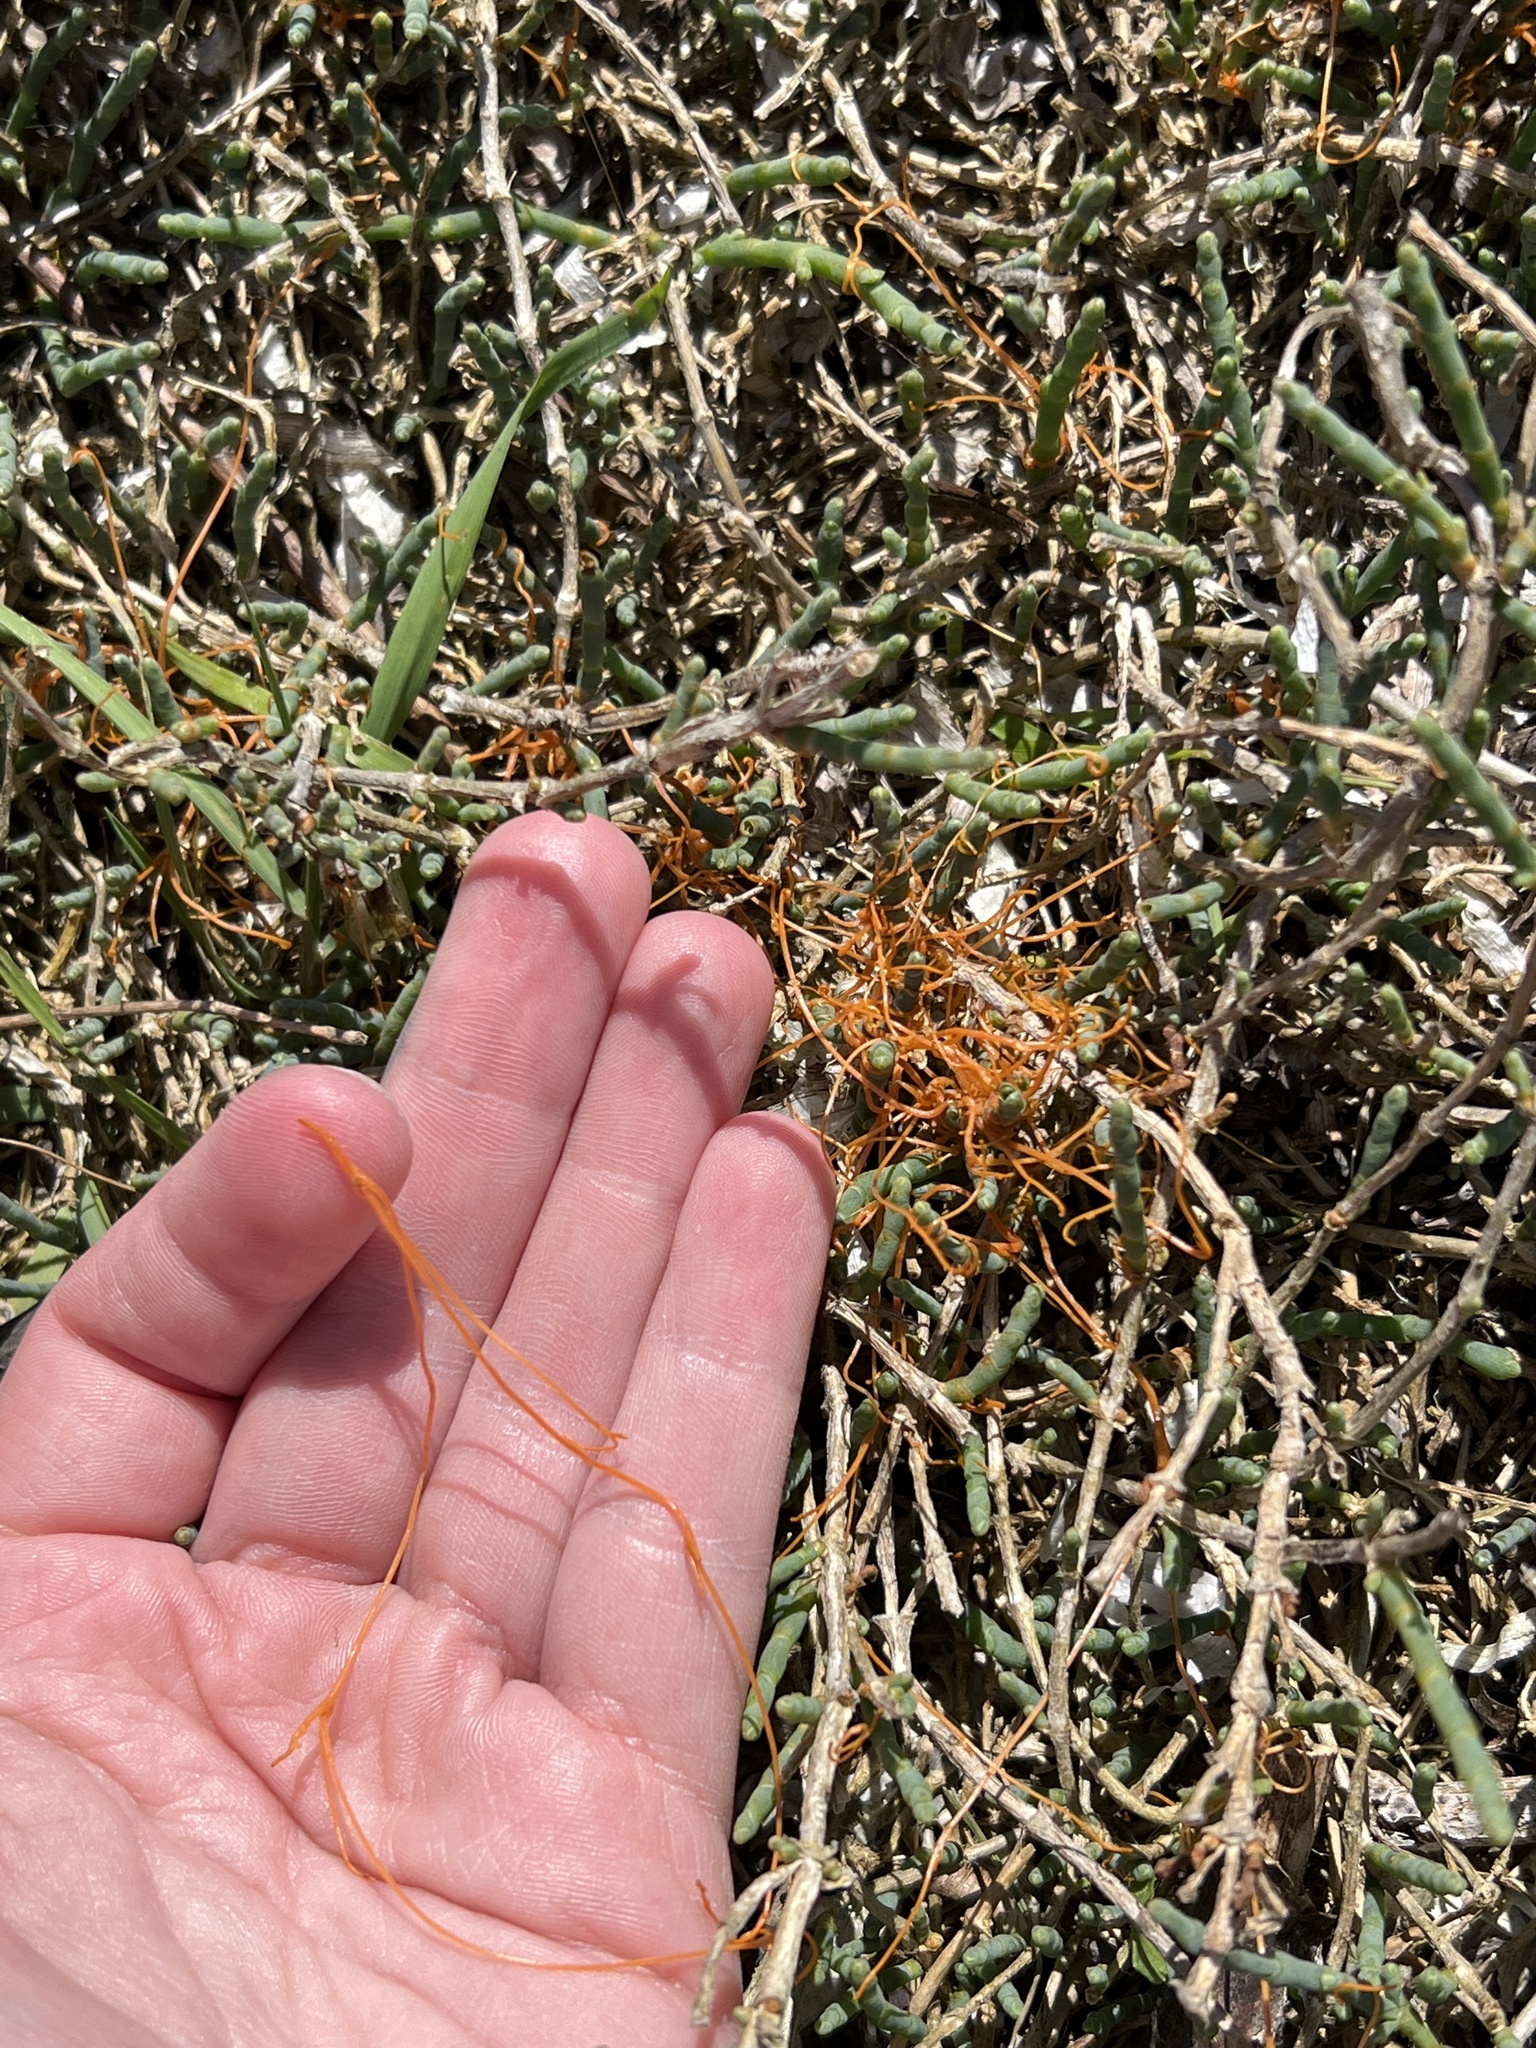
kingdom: Plantae
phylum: Tracheophyta
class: Magnoliopsida
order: Solanales
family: Convolvulaceae
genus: Cuscuta
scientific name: Cuscuta pacifica
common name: Large saltmarsh dodder
